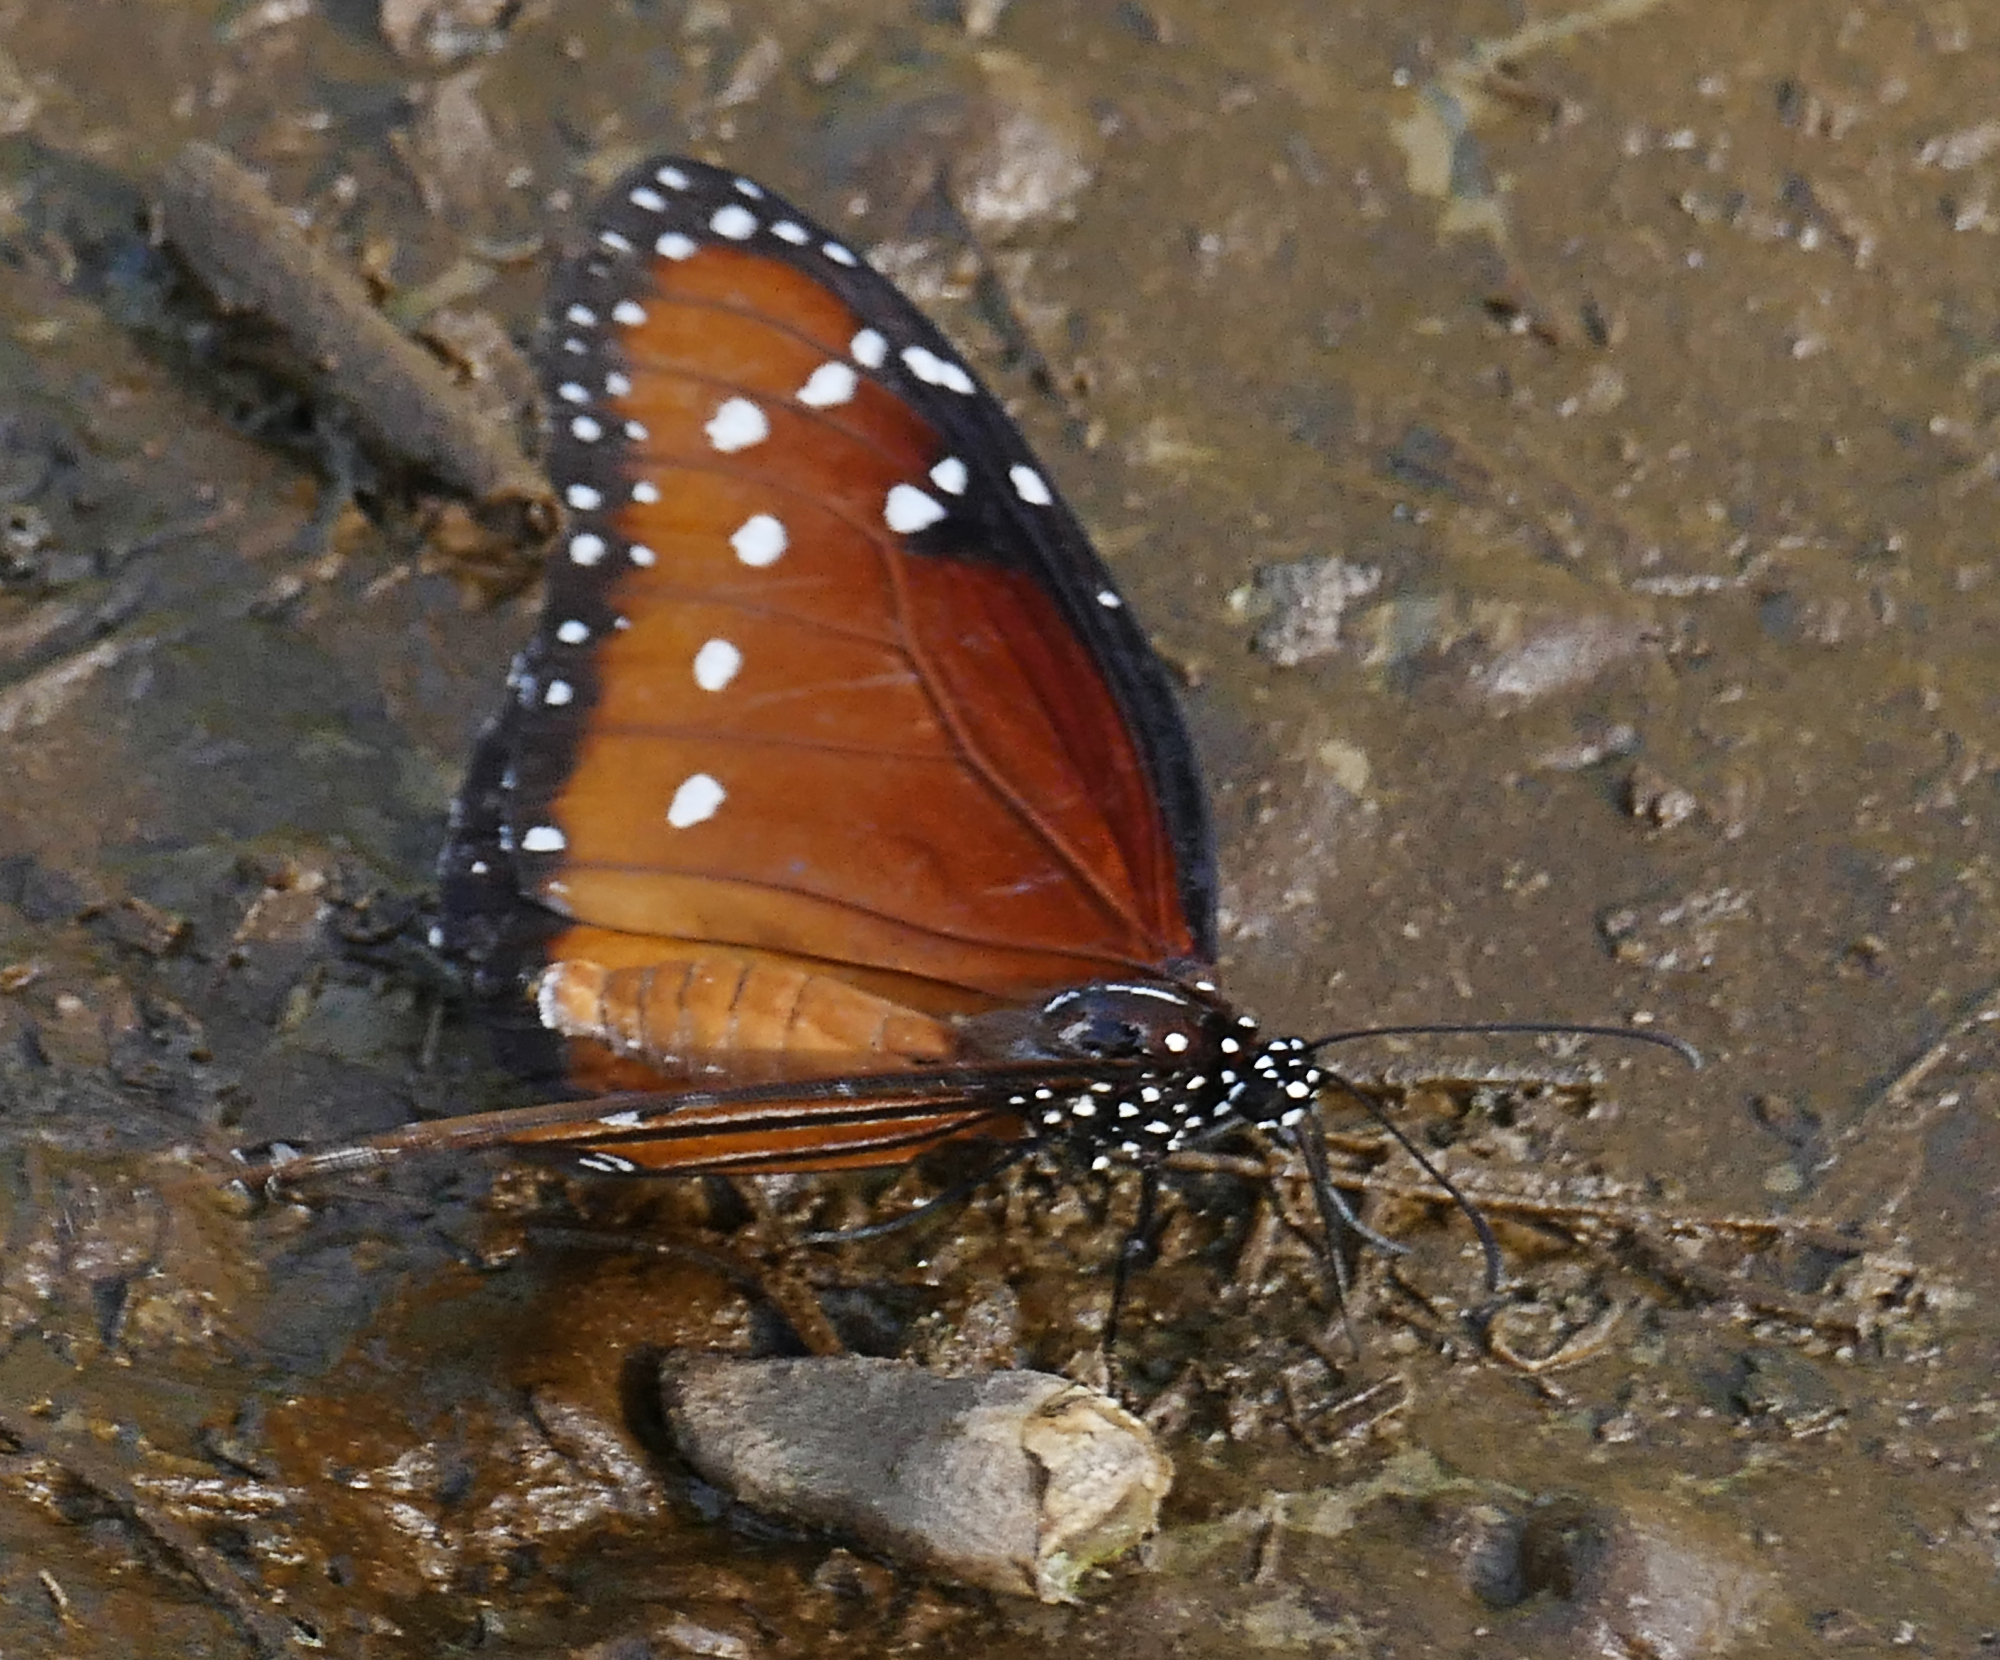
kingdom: Animalia
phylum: Arthropoda
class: Insecta
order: Lepidoptera
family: Nymphalidae
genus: Danaus
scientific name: Danaus gilippus
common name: Queen
